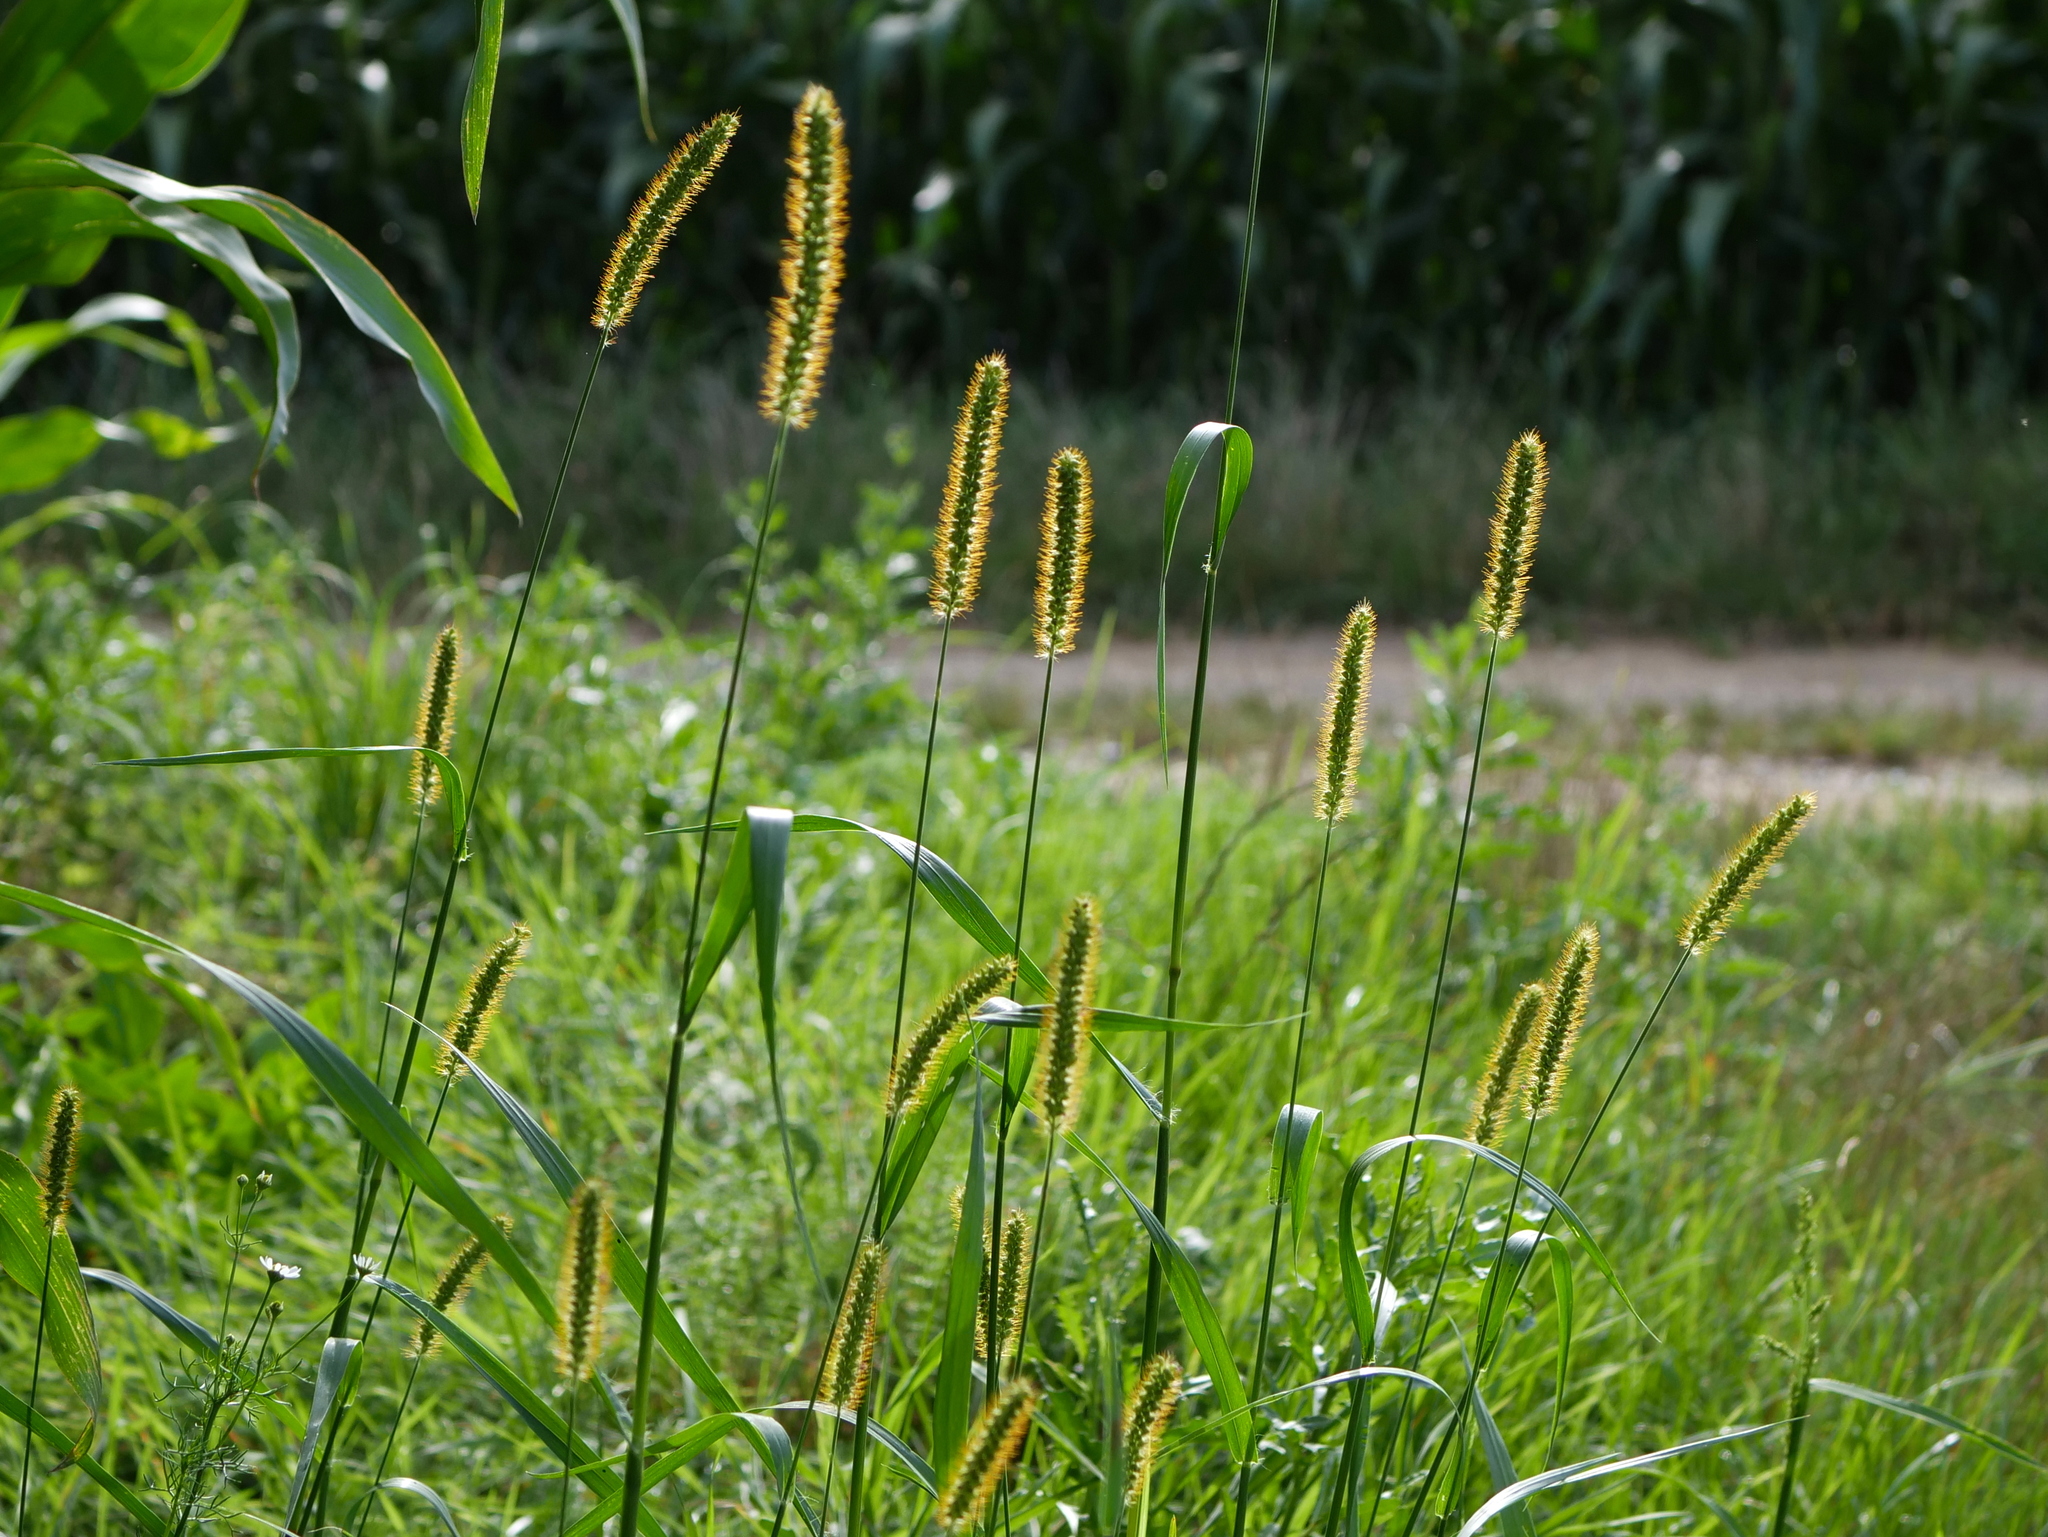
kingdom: Plantae
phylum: Tracheophyta
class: Liliopsida
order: Poales
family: Poaceae
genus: Setaria
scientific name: Setaria pumila
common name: Yellow bristle-grass
